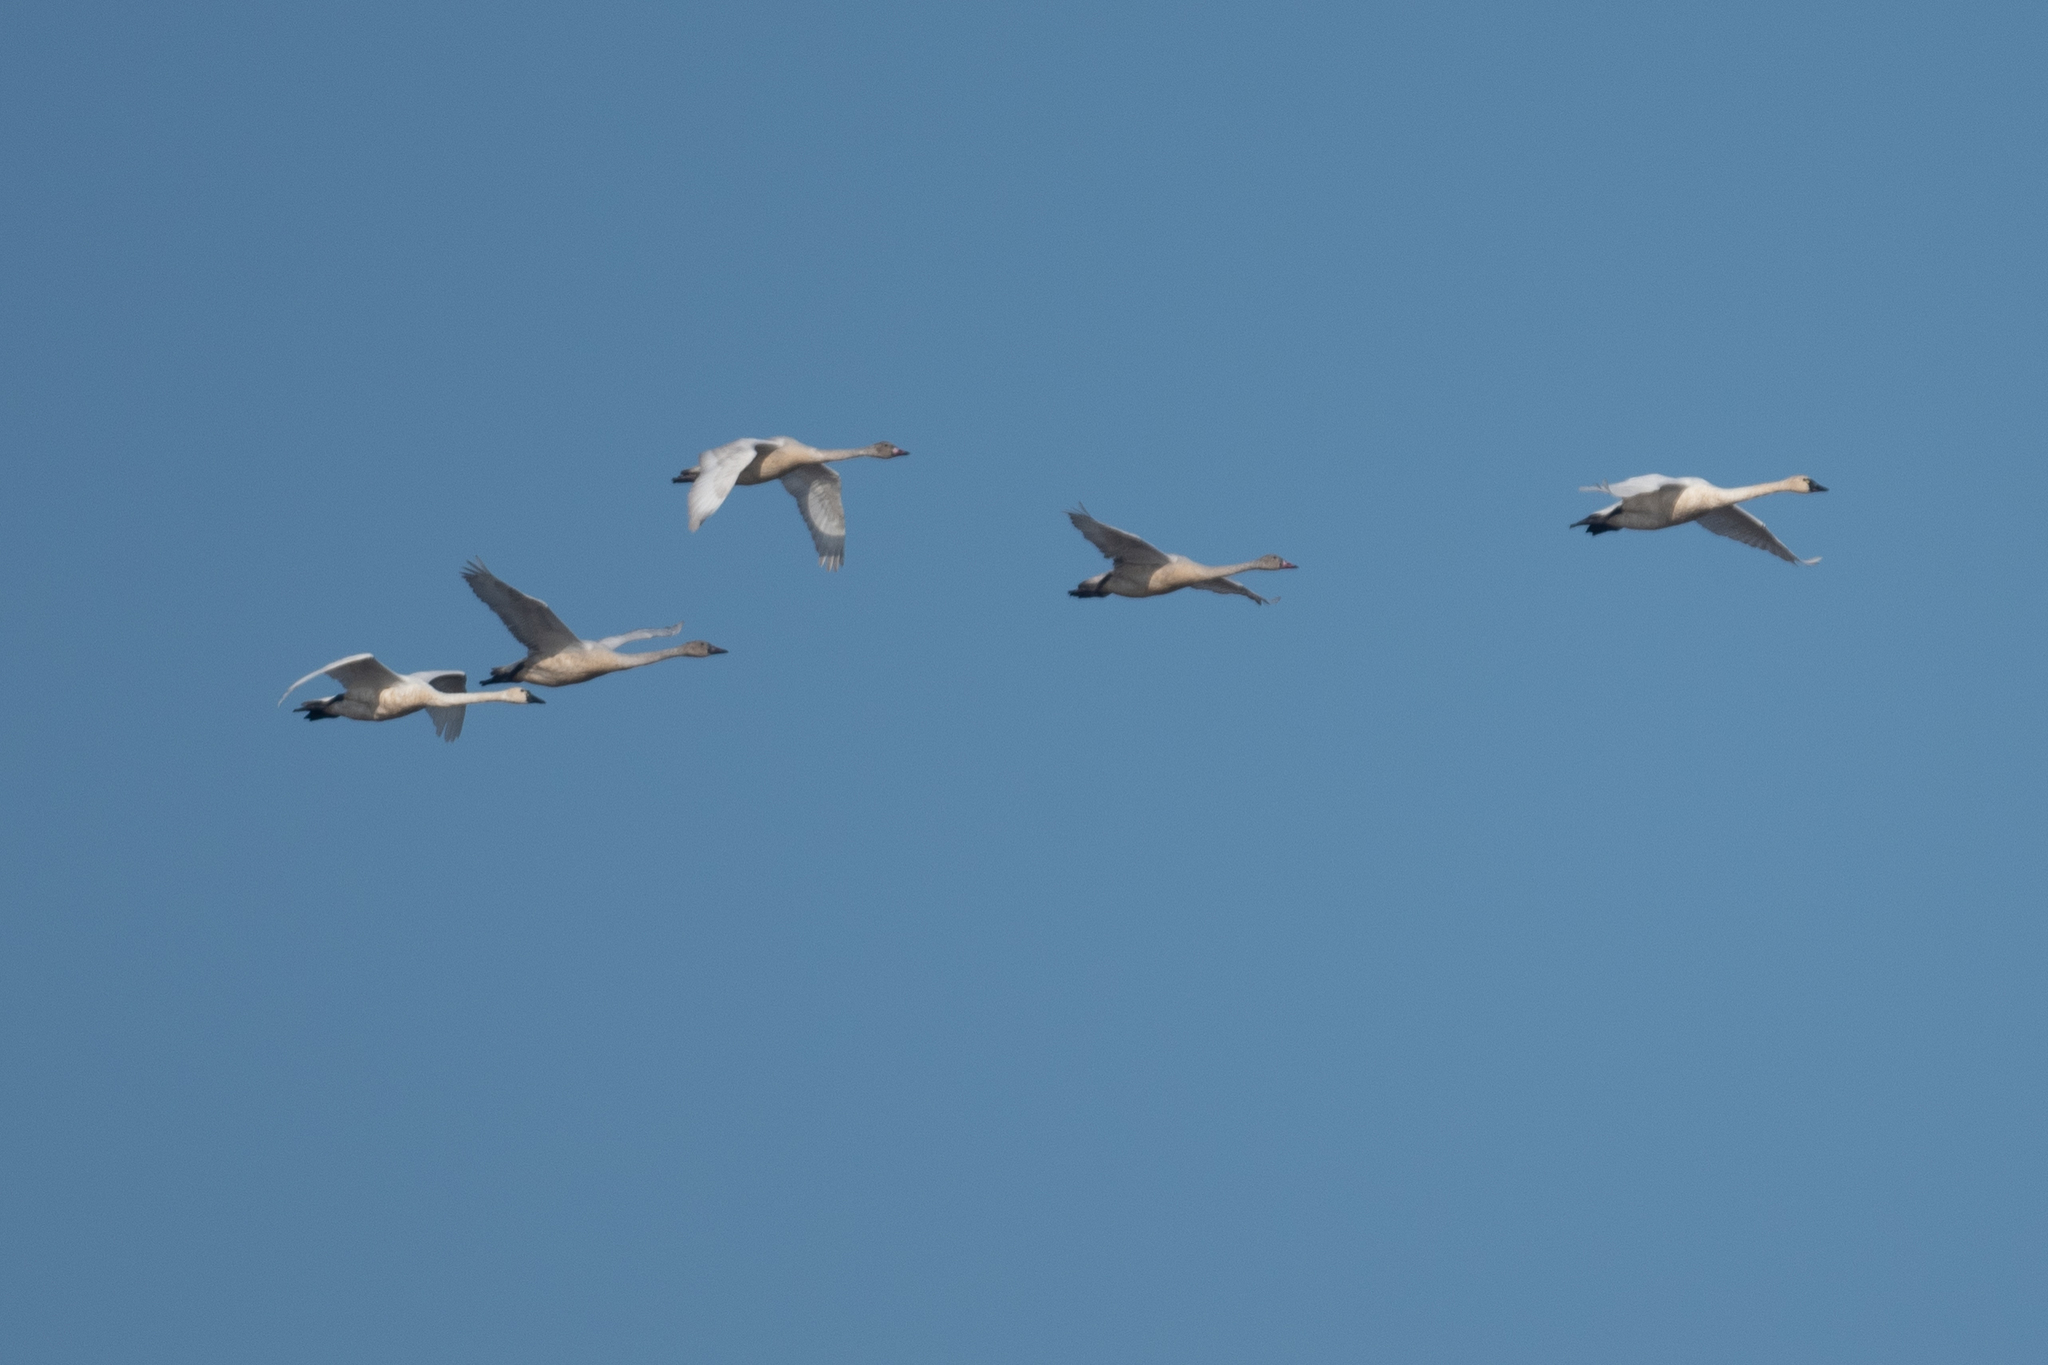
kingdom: Animalia
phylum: Chordata
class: Aves
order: Anseriformes
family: Anatidae
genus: Cygnus
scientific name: Cygnus columbianus
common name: Tundra swan
